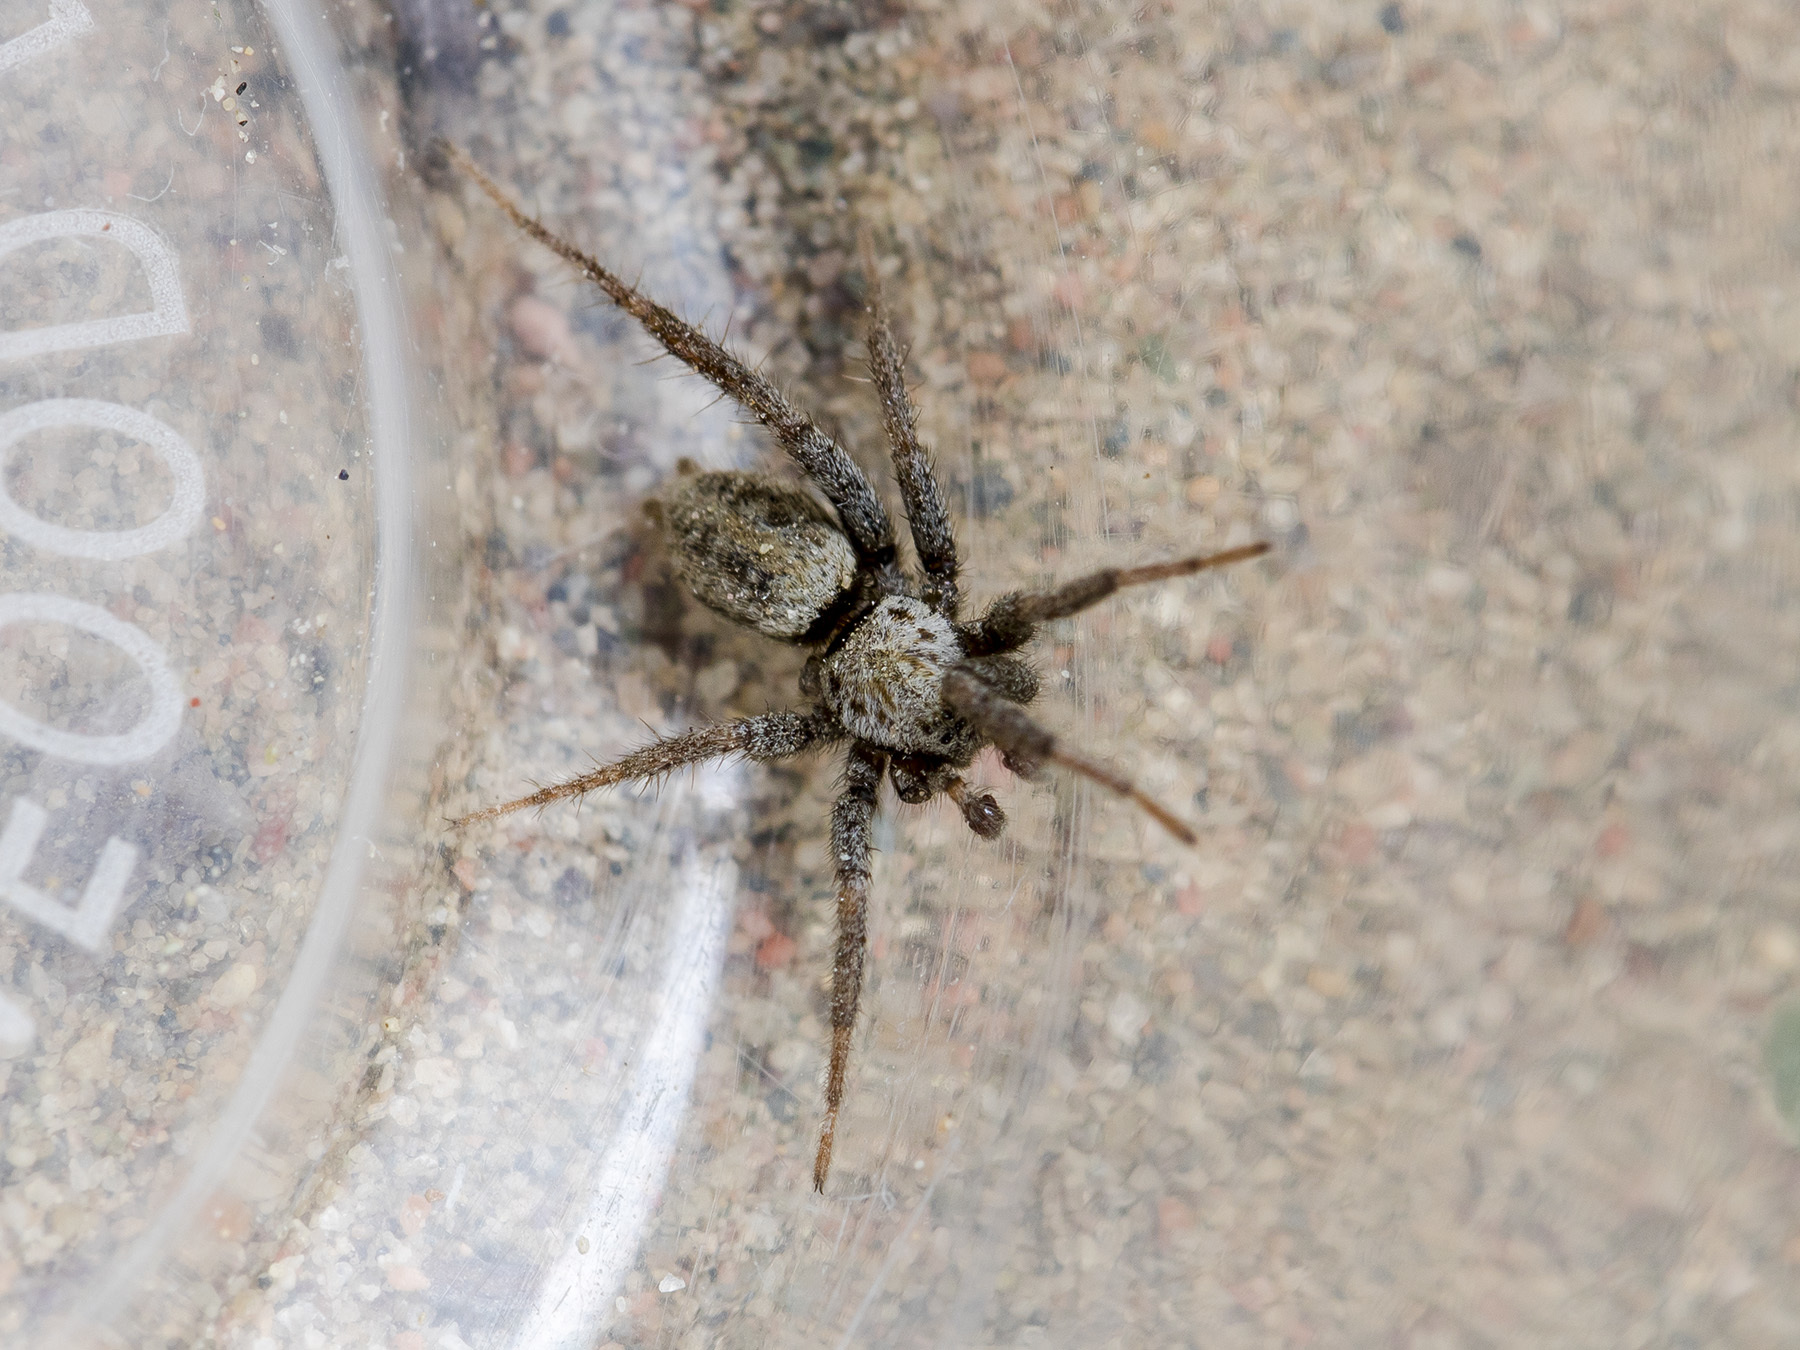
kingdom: Animalia
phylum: Arthropoda
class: Arachnida
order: Araneae
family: Gnaphosidae
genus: Berlandina
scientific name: Berlandina spasskyi
